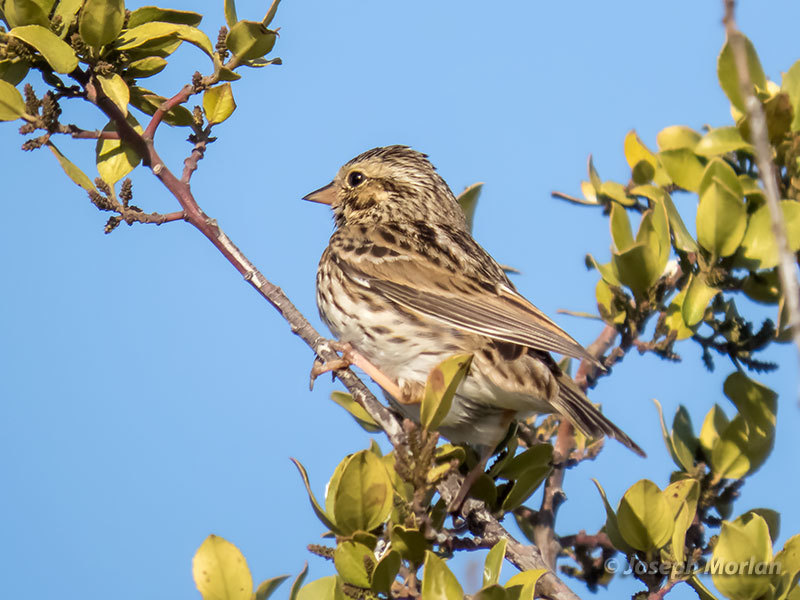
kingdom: Animalia
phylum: Chordata
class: Aves
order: Passeriformes
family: Passerellidae
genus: Passerculus
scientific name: Passerculus sandwichensis
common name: Savannah sparrow
